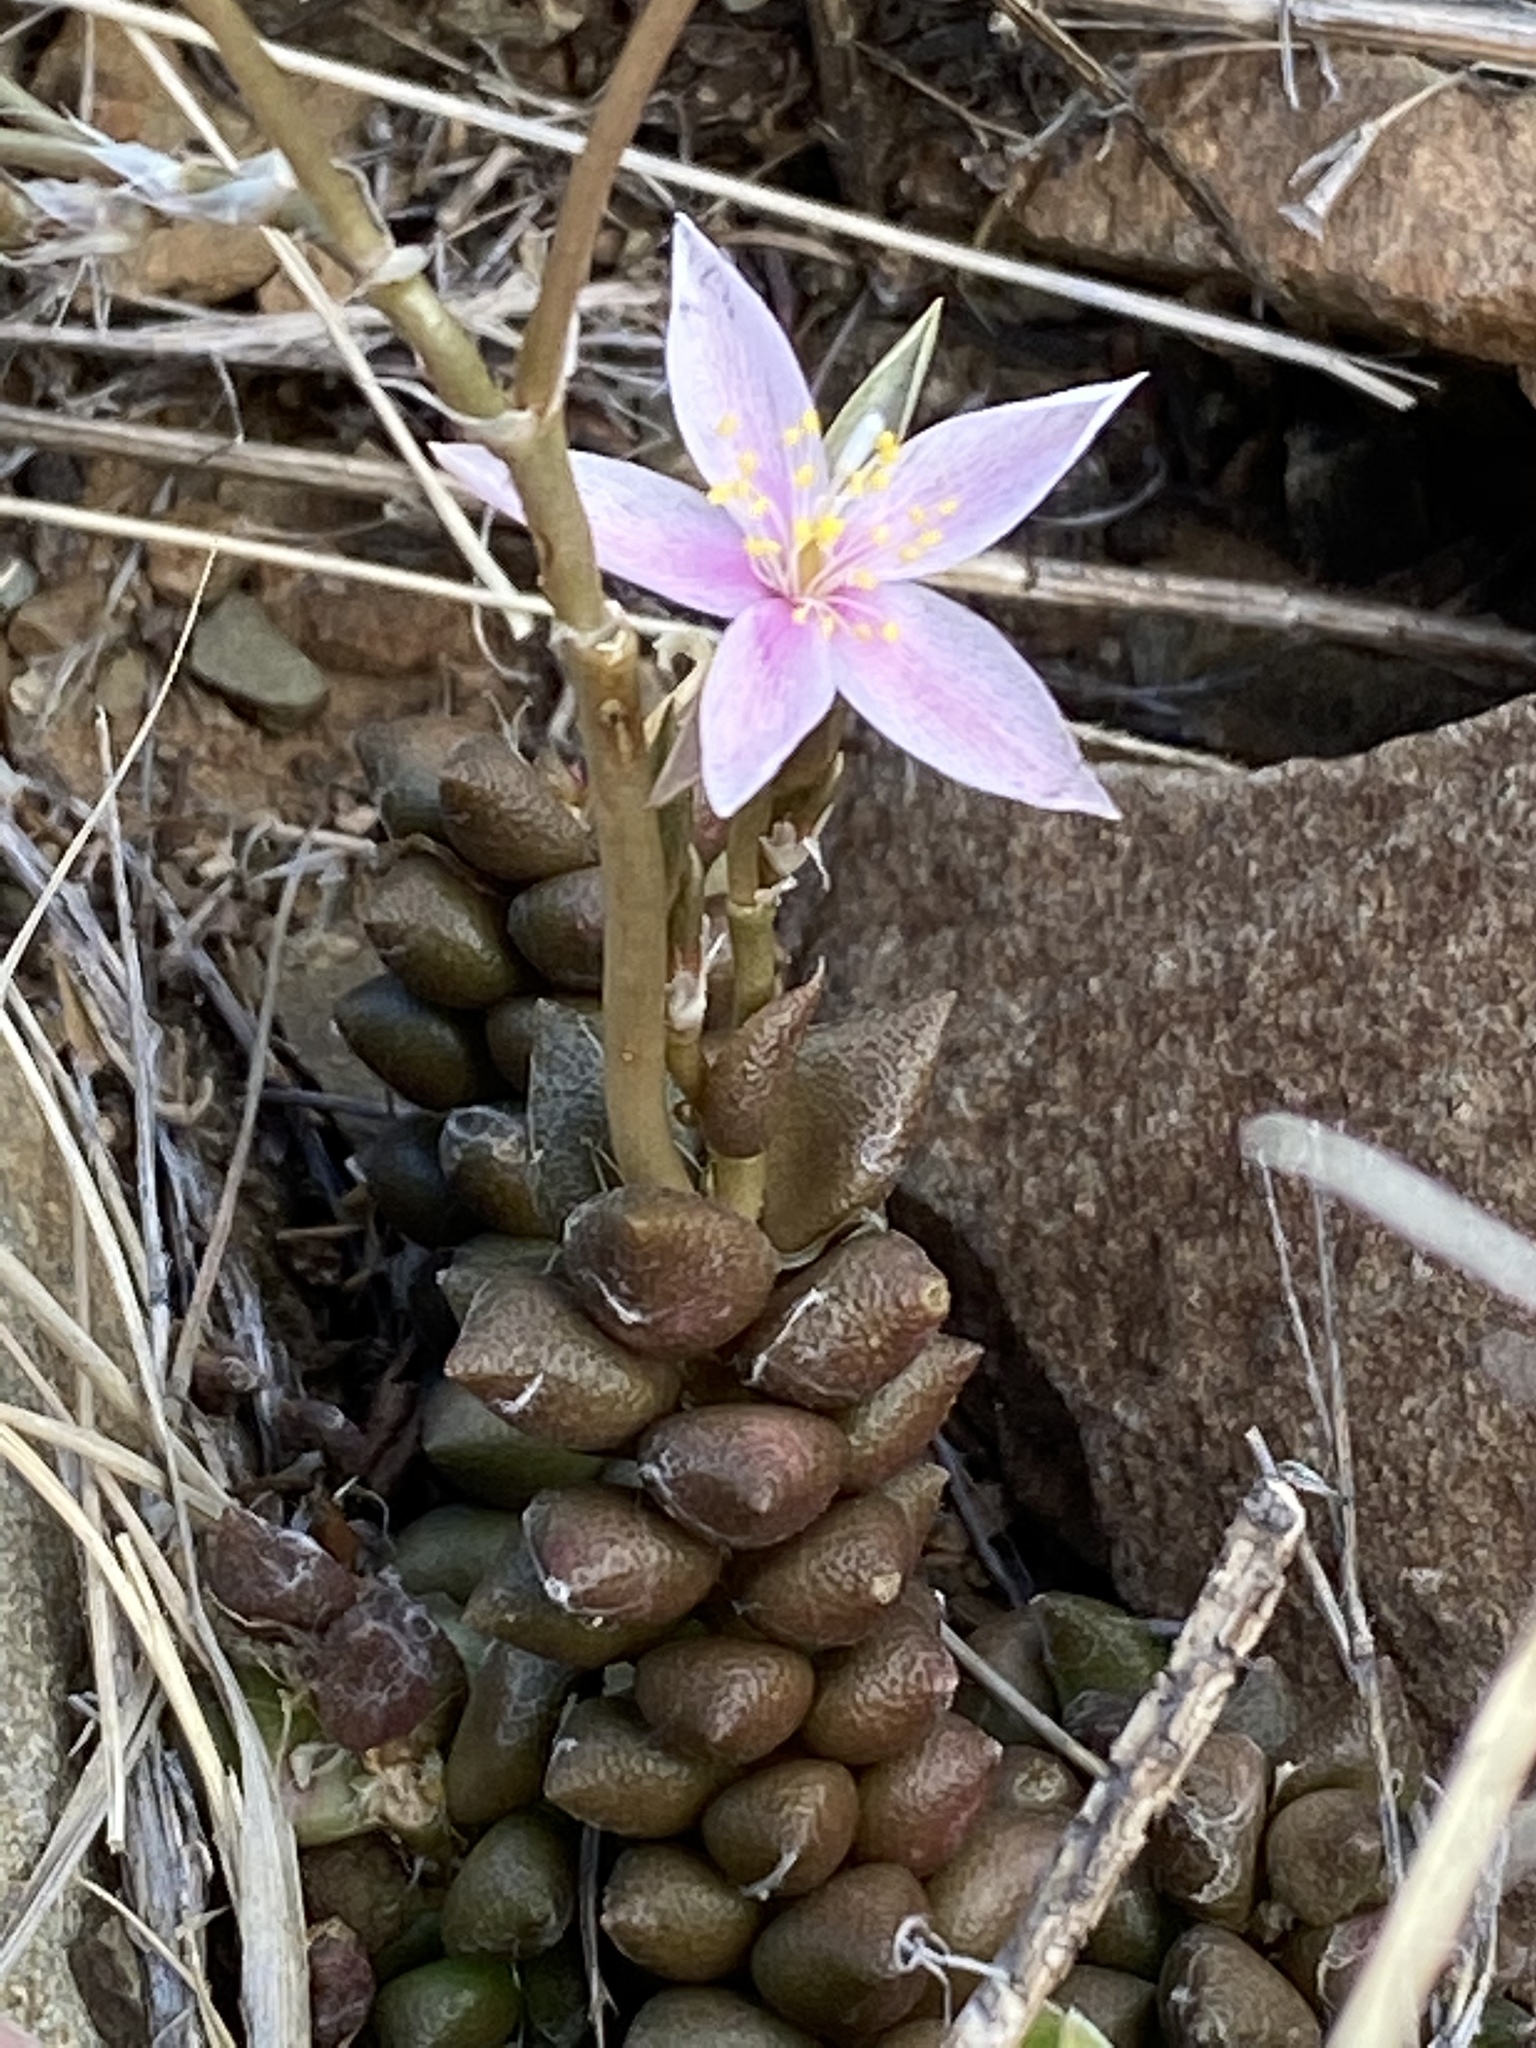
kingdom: Plantae
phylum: Tracheophyta
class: Magnoliopsida
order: Caryophyllales
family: Anacampserotaceae
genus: Anacampseros
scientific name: Anacampseros arachnoides
